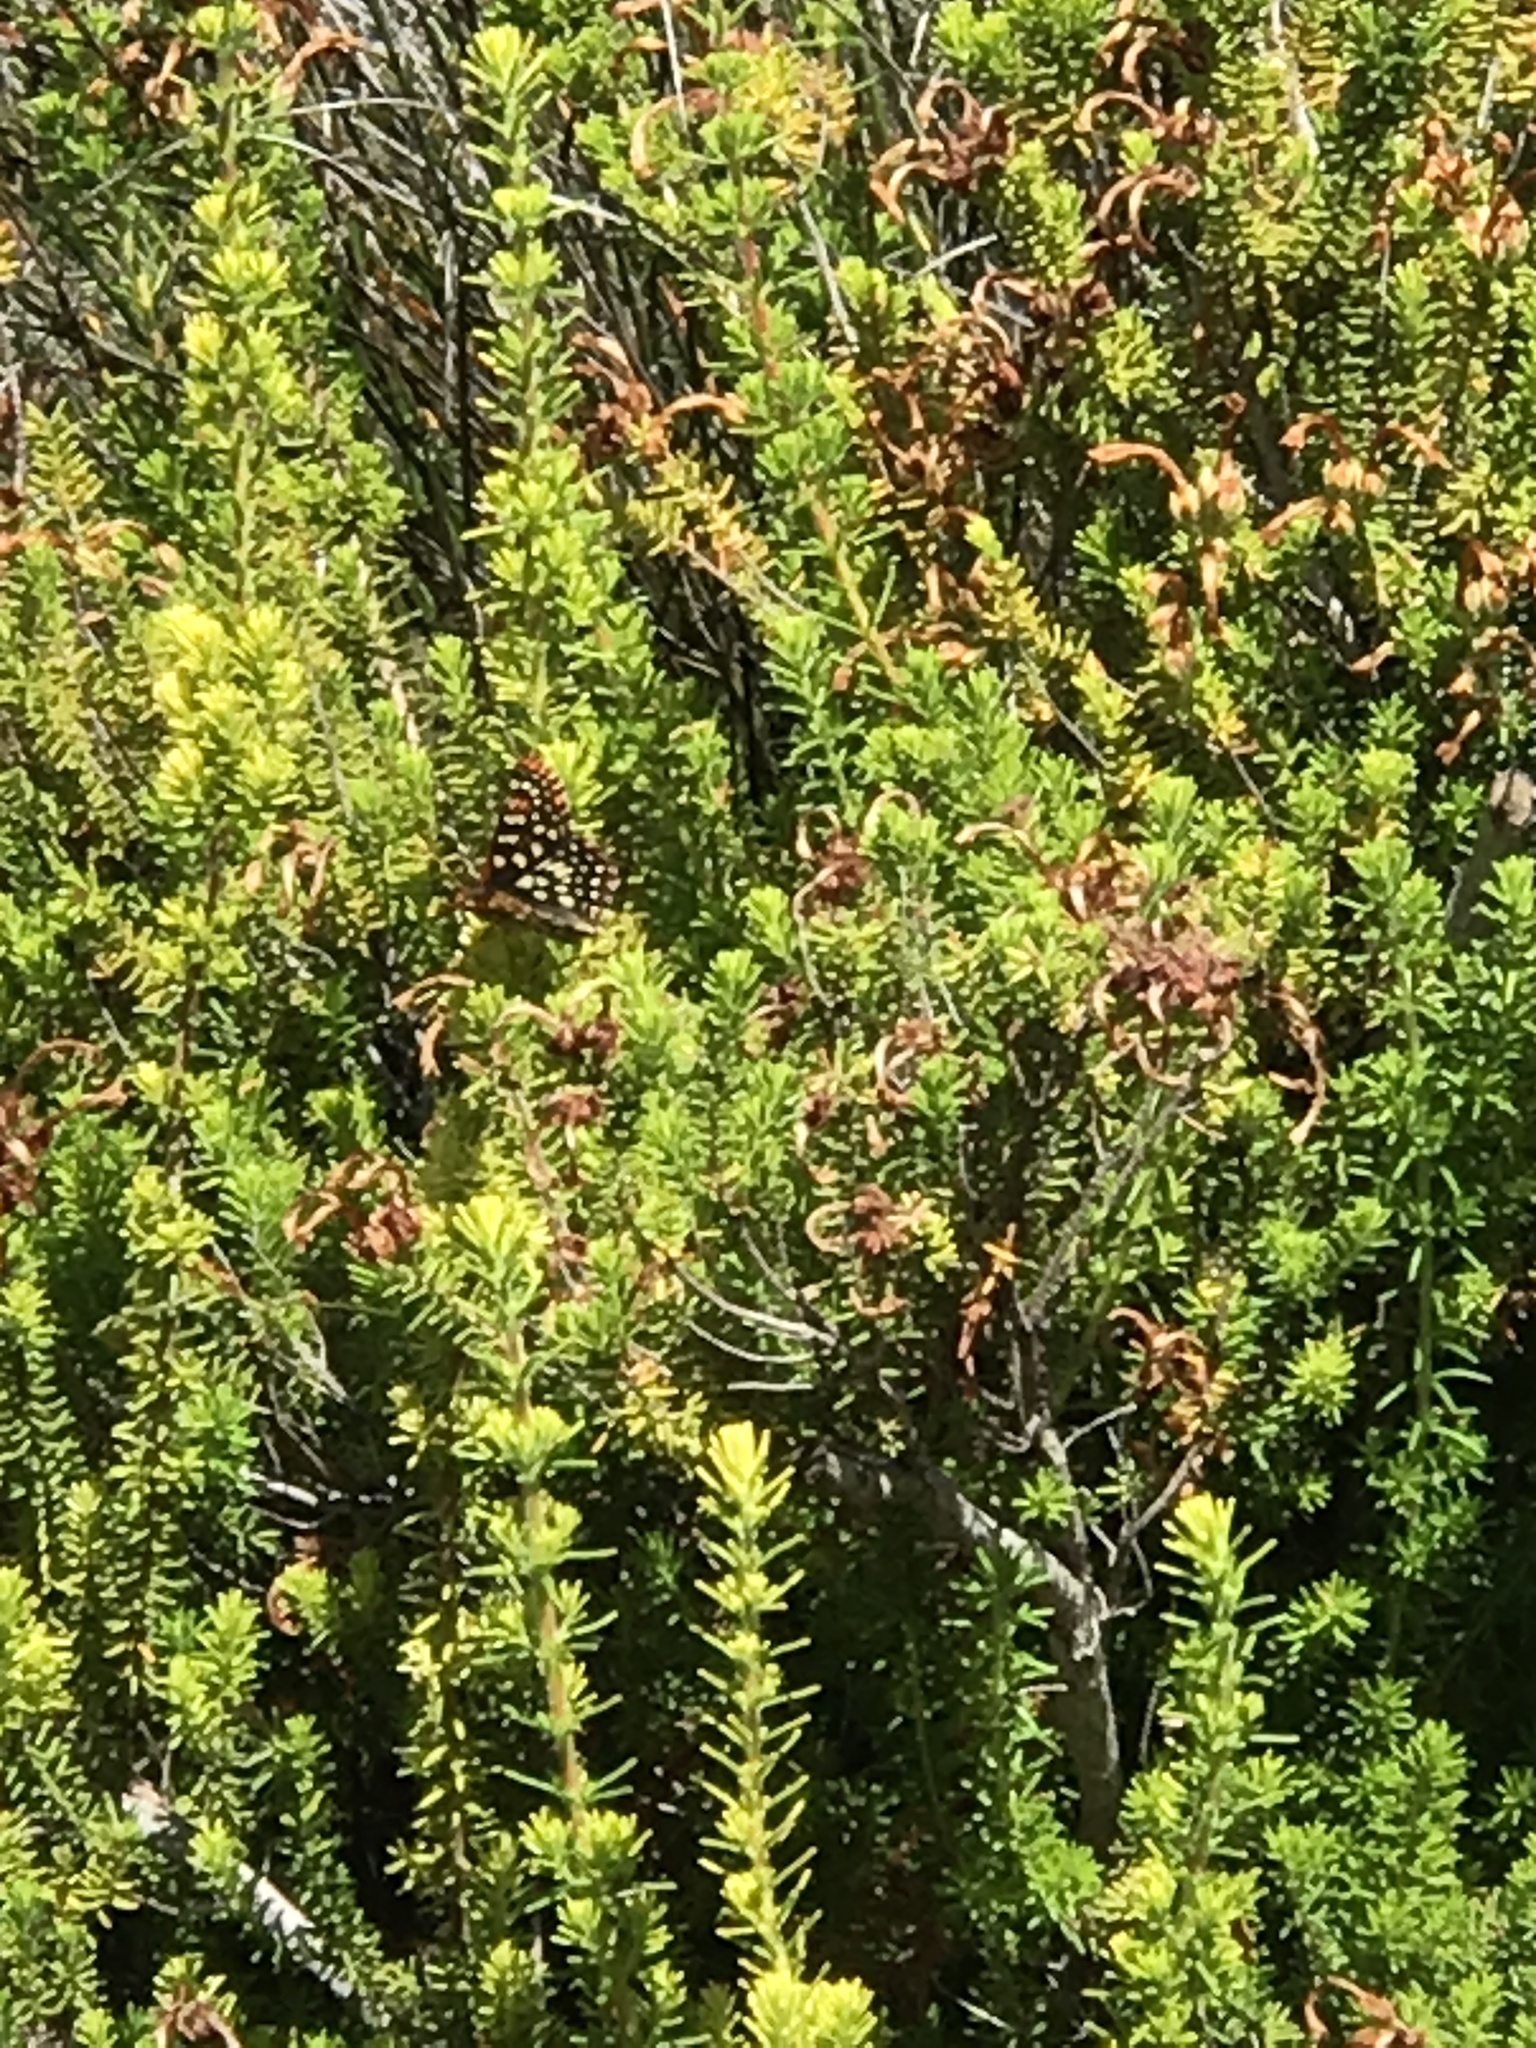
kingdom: Animalia
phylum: Arthropoda
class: Insecta
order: Lepidoptera
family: Nymphalidae
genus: Occidryas
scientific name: Occidryas chalcedona
